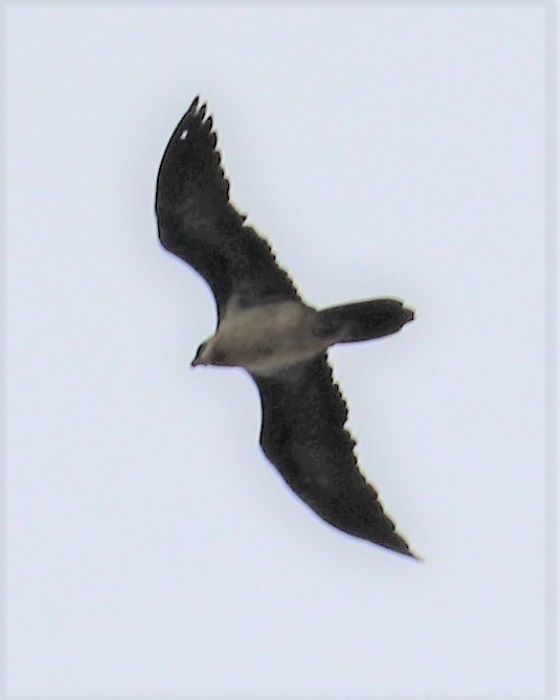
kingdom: Animalia
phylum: Chordata
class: Aves
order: Accipitriformes
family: Accipitridae
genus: Gypaetus
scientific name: Gypaetus barbatus
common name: Bearded vulture
